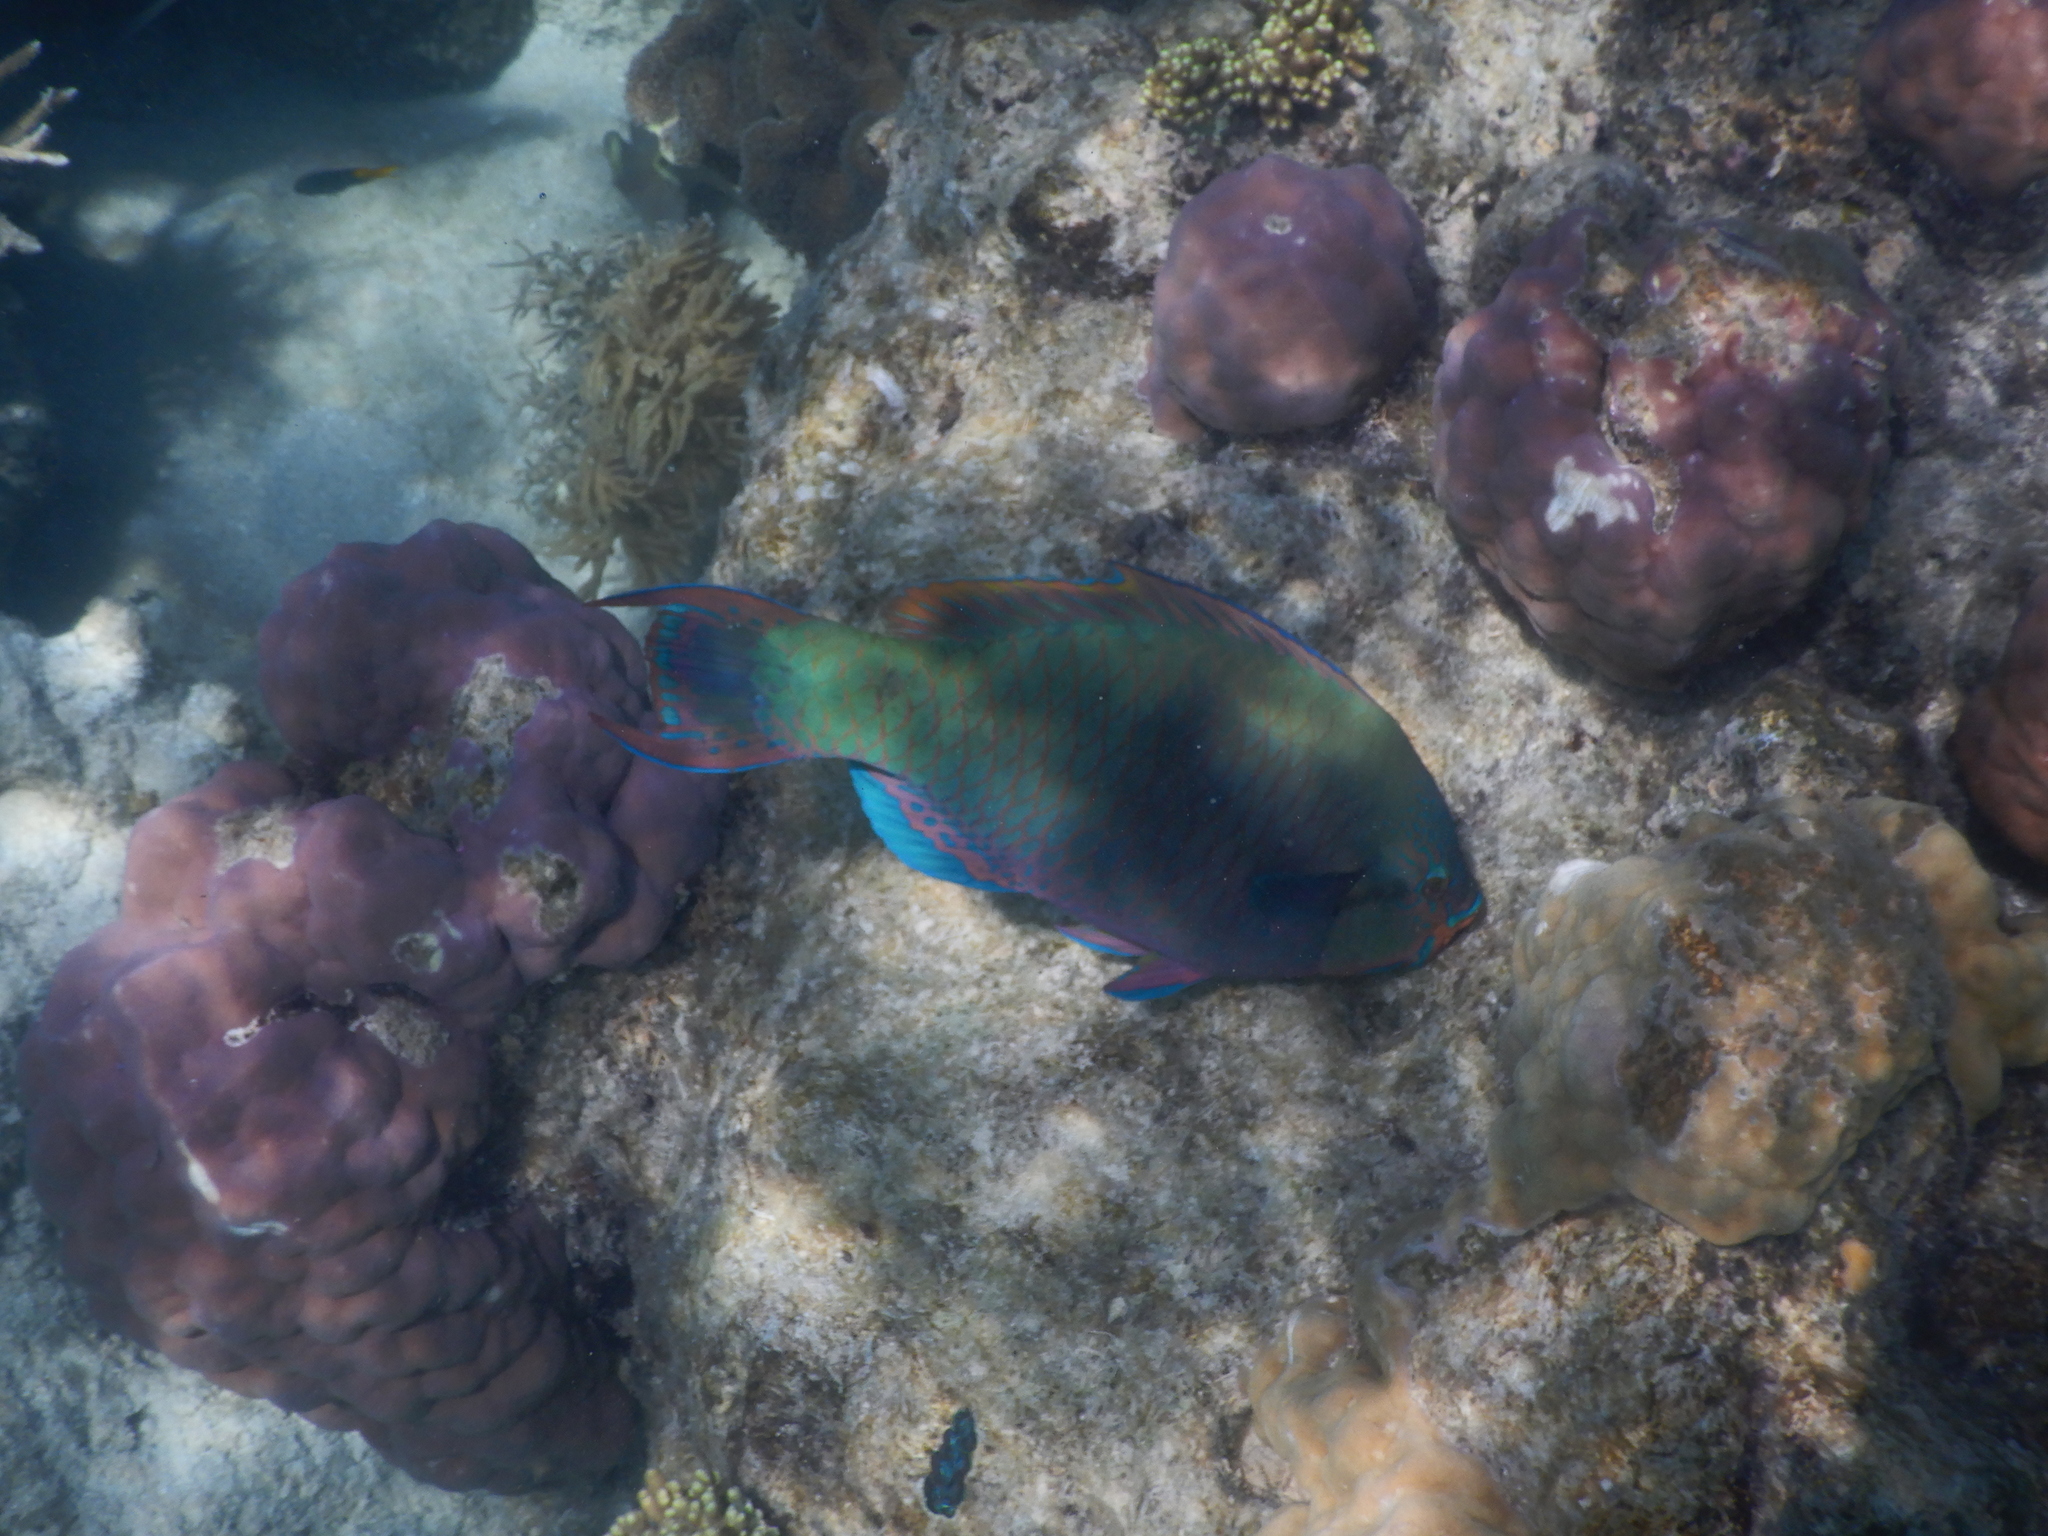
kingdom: Animalia
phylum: Chordata
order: Perciformes
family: Scaridae
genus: Scarus
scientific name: Scarus altipinnis
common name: Minifin parrotfish
